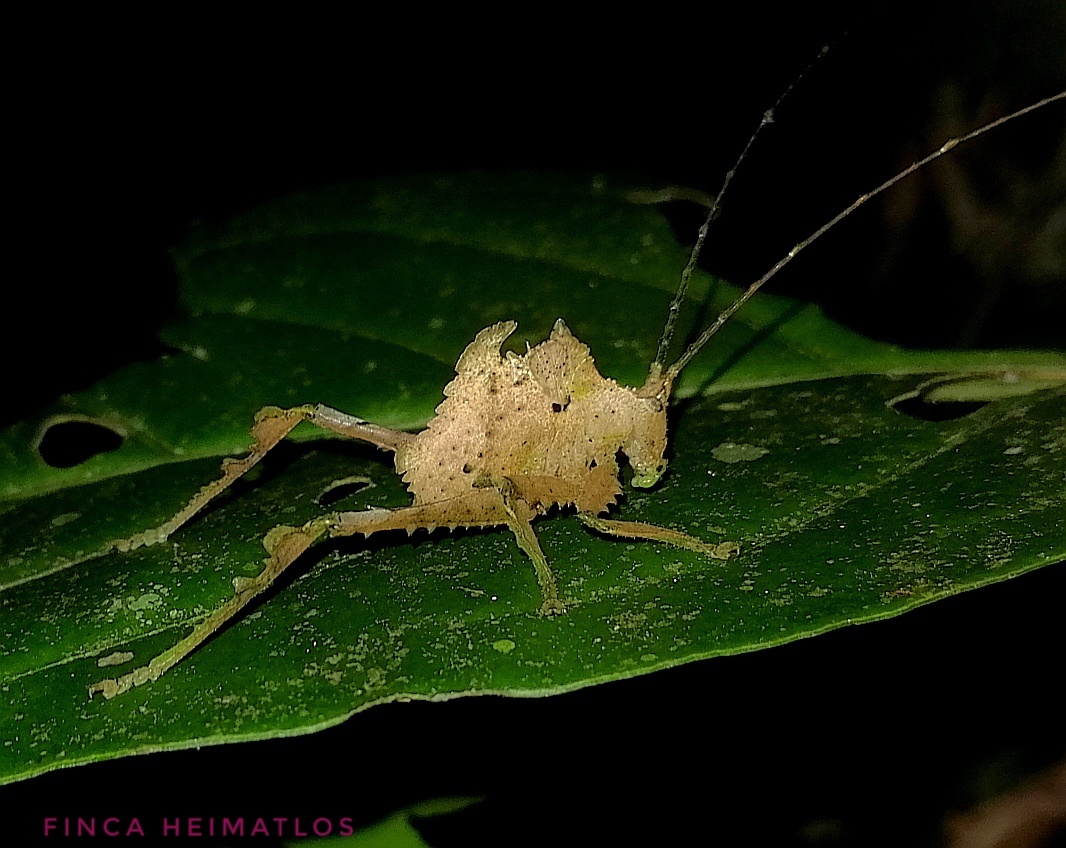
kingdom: Animalia
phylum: Arthropoda
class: Insecta
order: Orthoptera
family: Tettigoniidae
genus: Typophyllum
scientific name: Typophyllum bolivari
